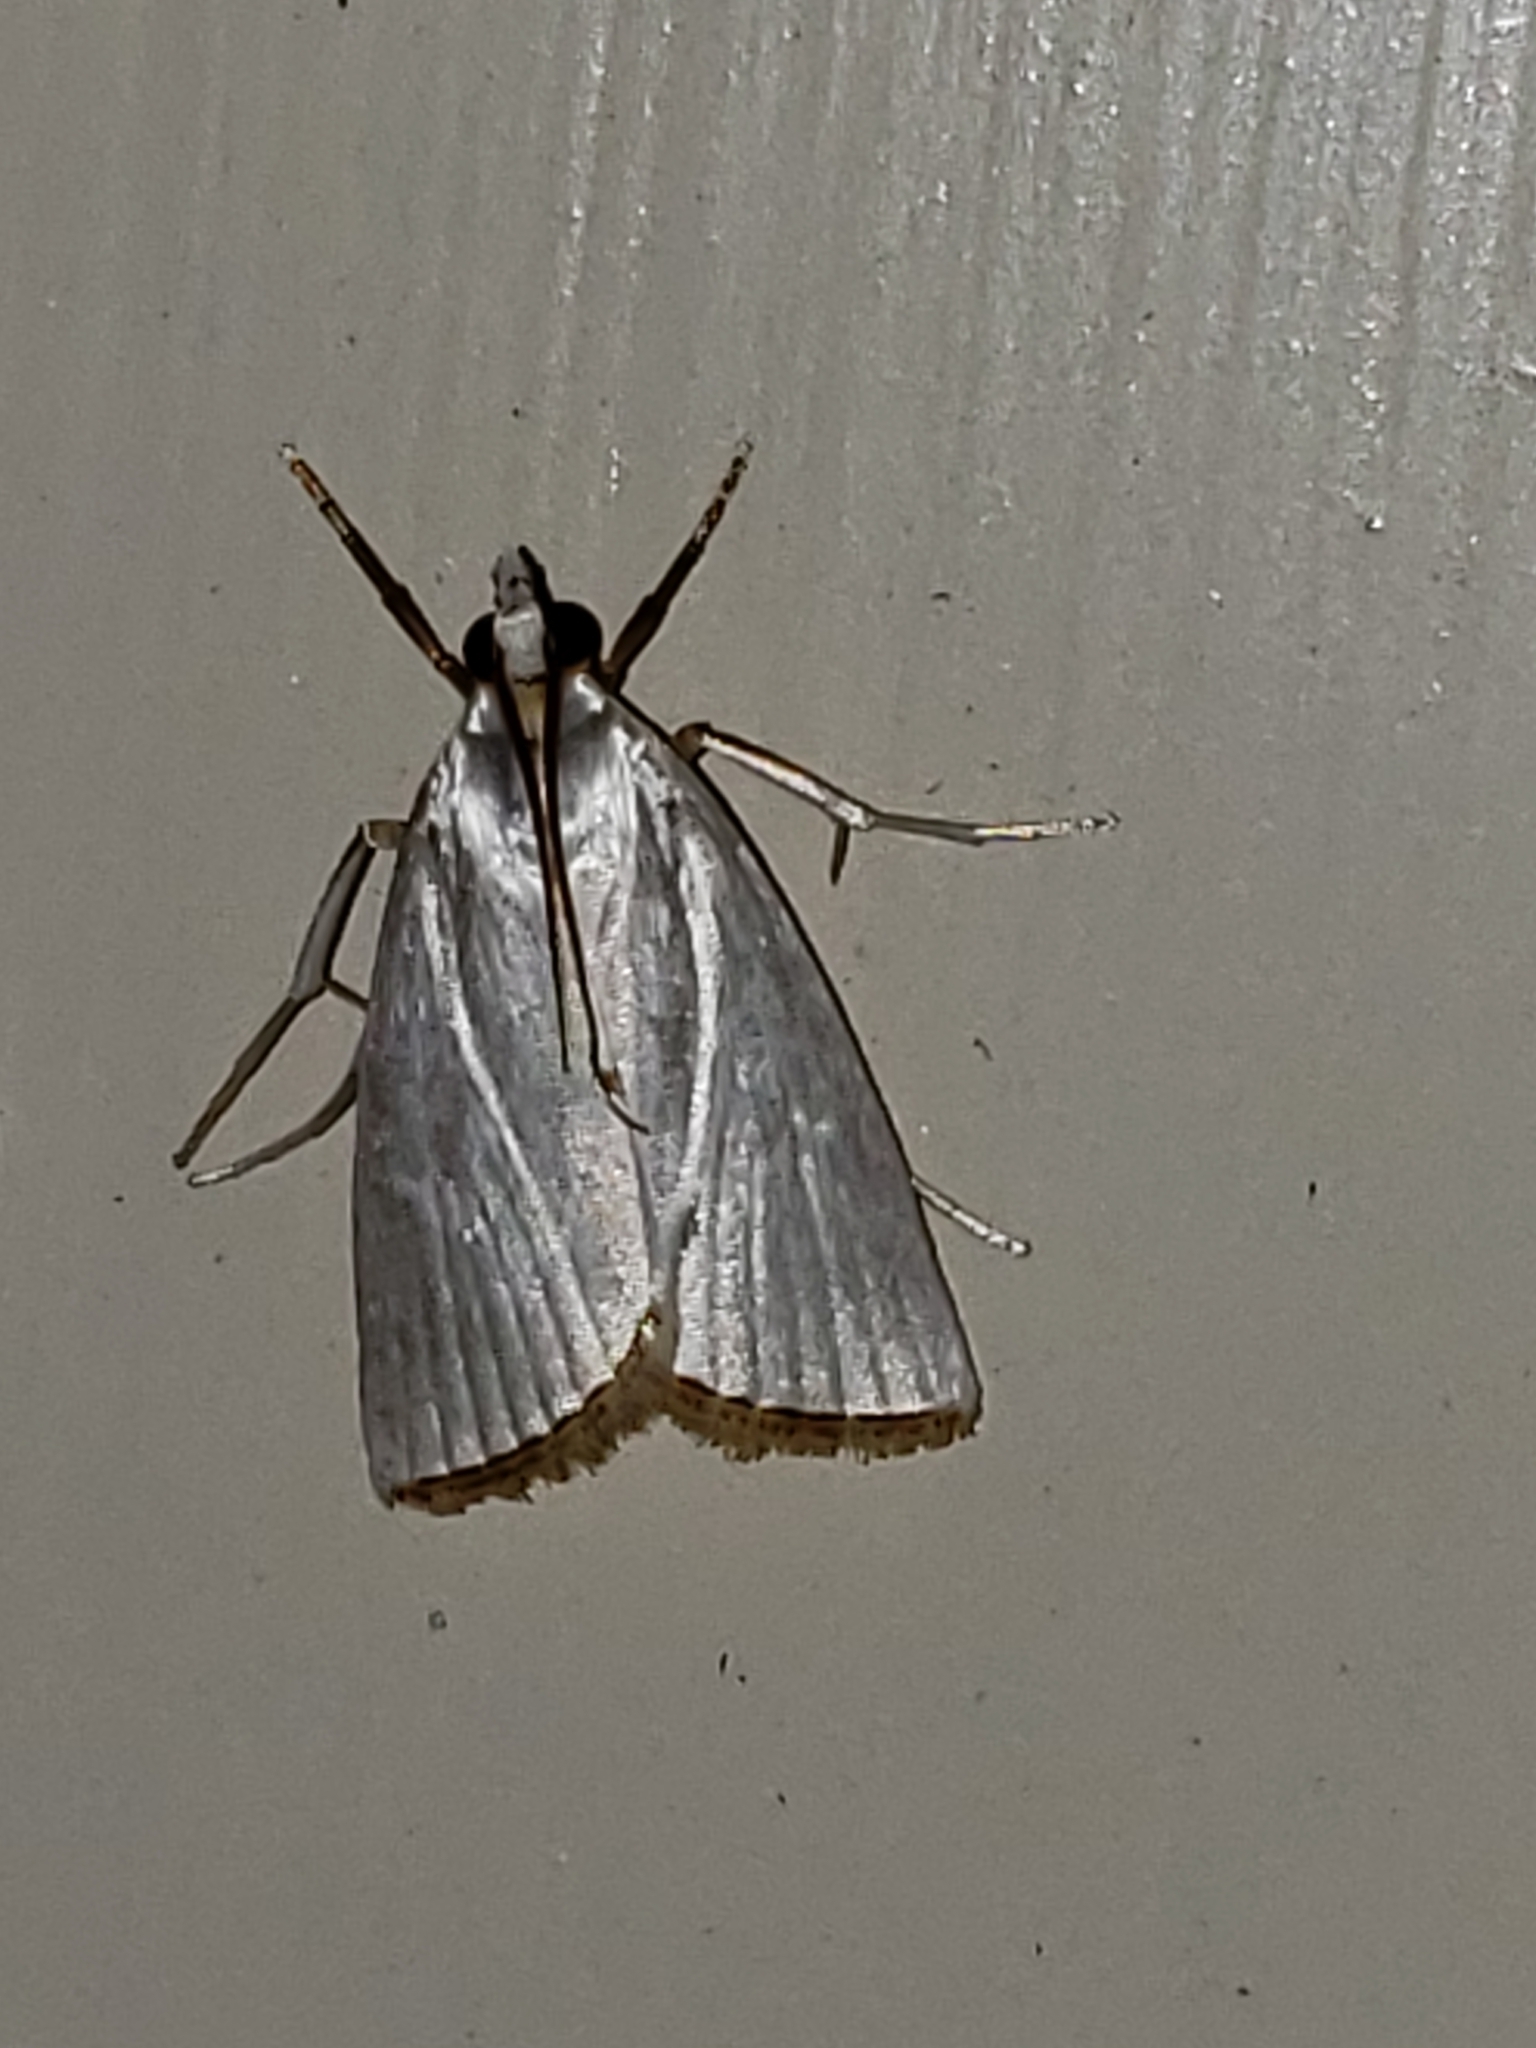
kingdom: Animalia
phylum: Arthropoda
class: Insecta
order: Lepidoptera
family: Crambidae
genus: Argyria
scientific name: Argyria nivalis
